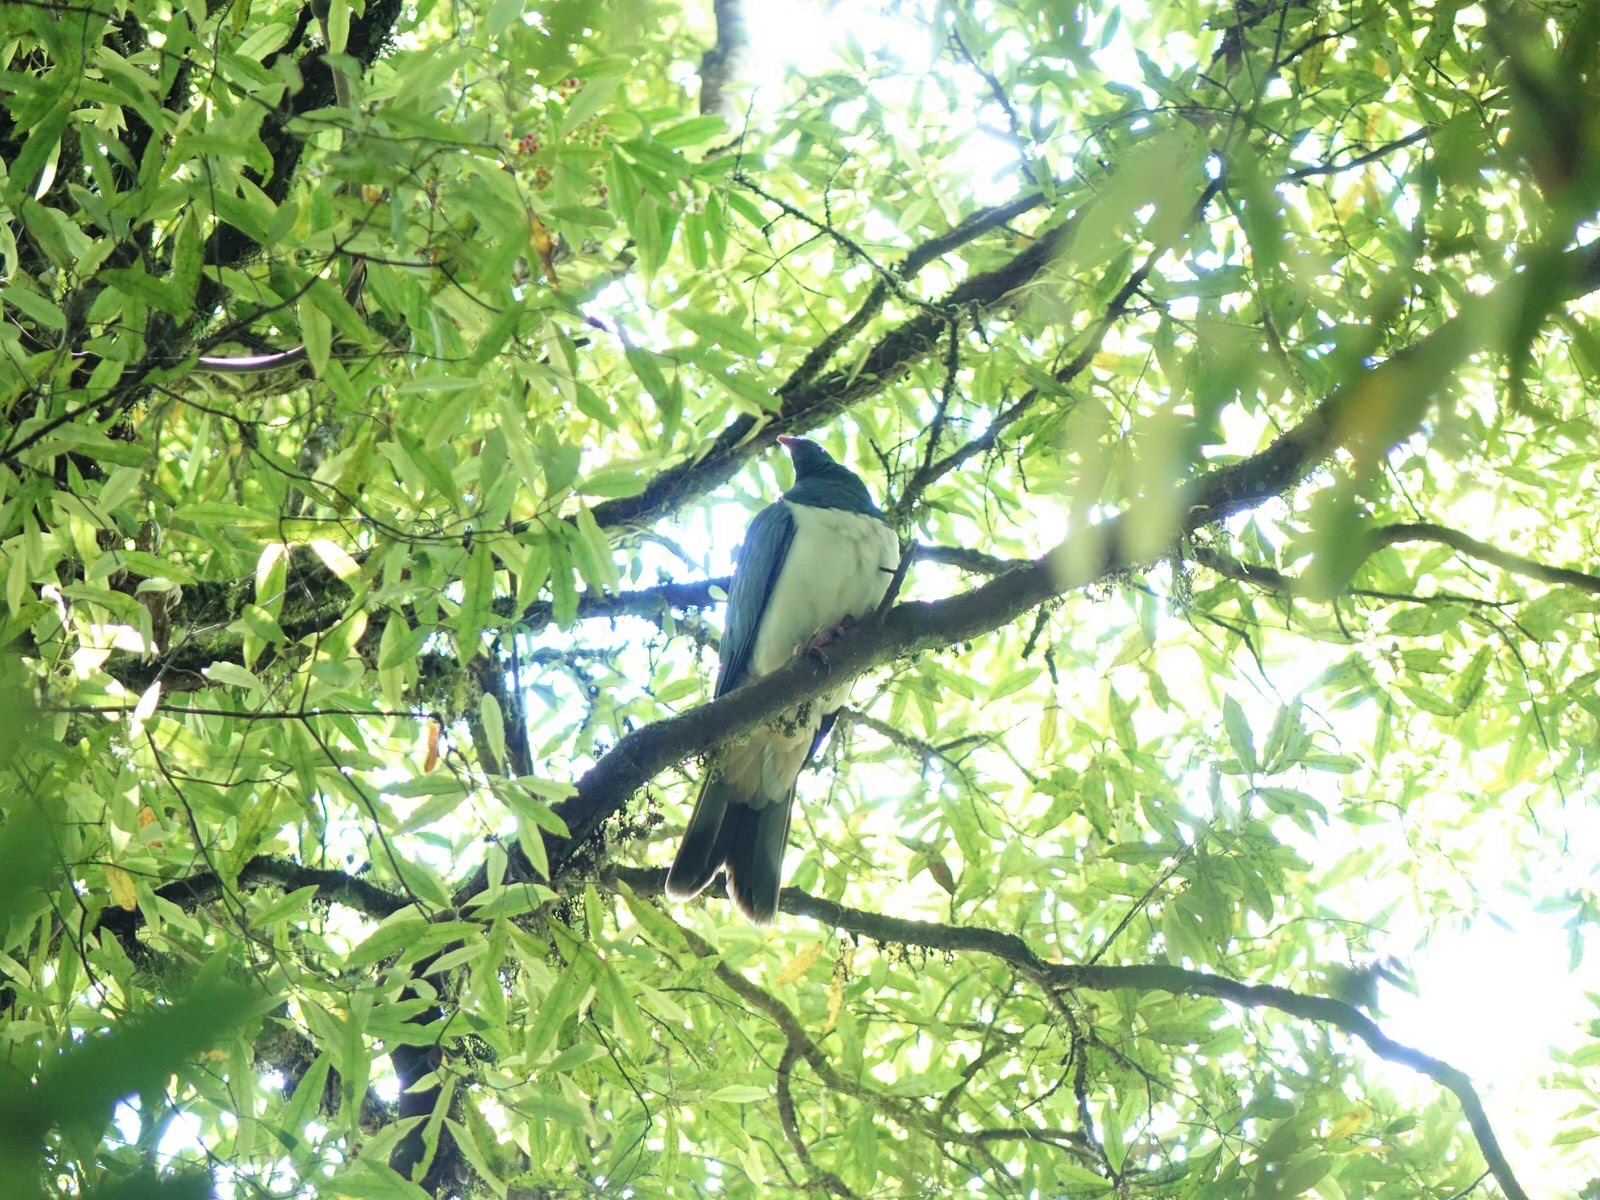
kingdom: Animalia
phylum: Chordata
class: Aves
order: Columbiformes
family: Columbidae
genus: Hemiphaga
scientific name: Hemiphaga novaeseelandiae
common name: New zealand pigeon
